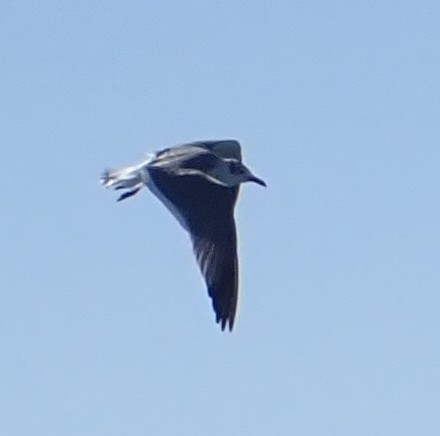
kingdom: Animalia
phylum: Chordata
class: Aves
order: Charadriiformes
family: Laridae
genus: Leucophaeus
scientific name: Leucophaeus atricilla
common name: Laughing gull
